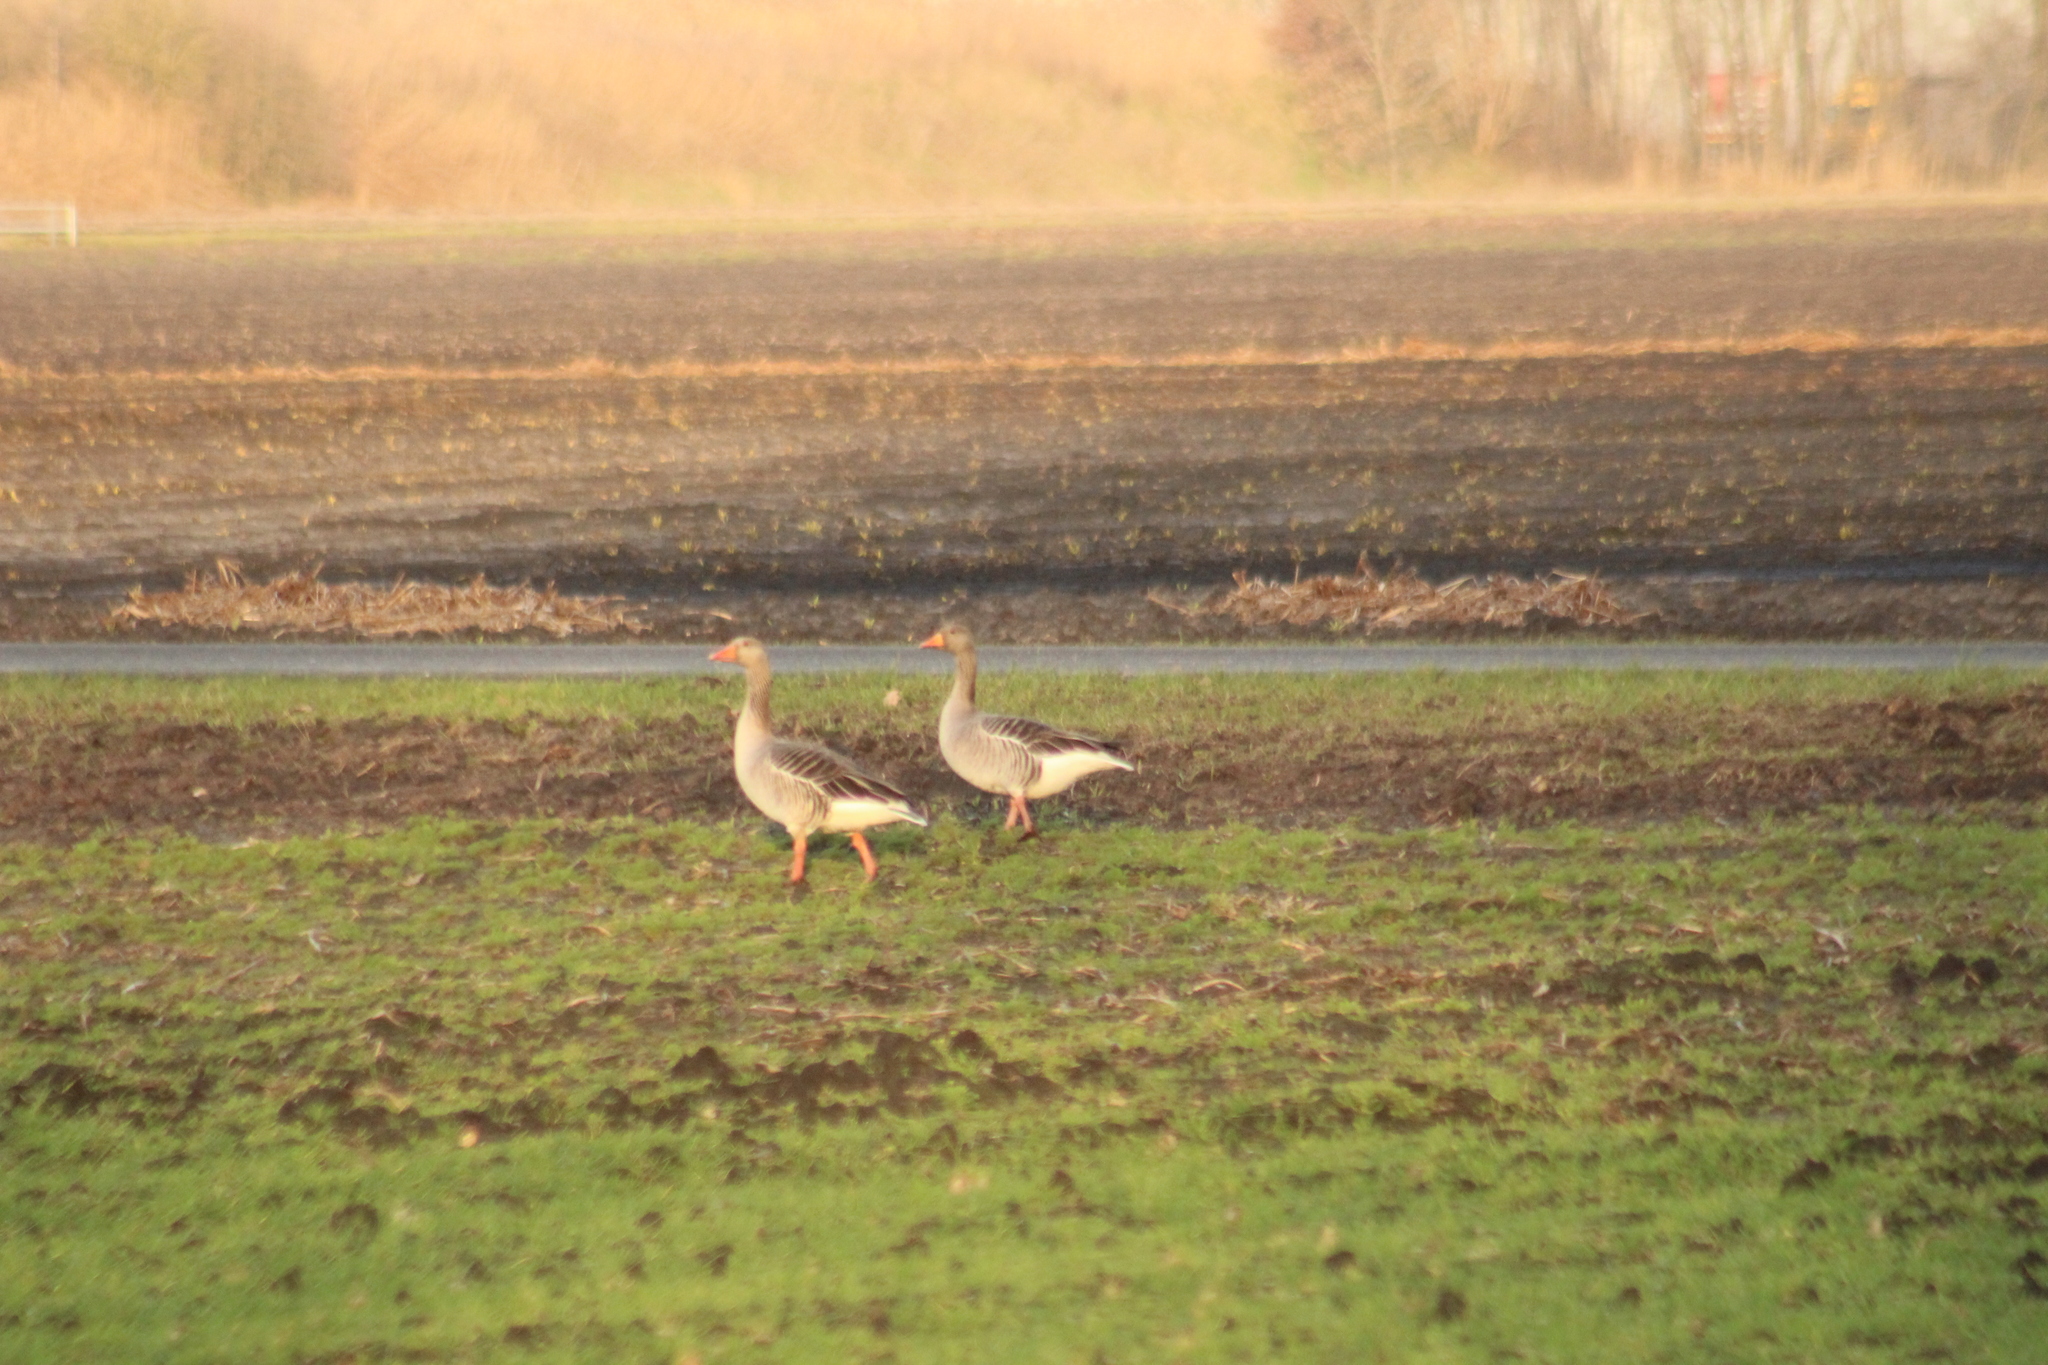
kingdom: Animalia
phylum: Chordata
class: Aves
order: Anseriformes
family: Anatidae
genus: Anser
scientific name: Anser anser
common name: Greylag goose
